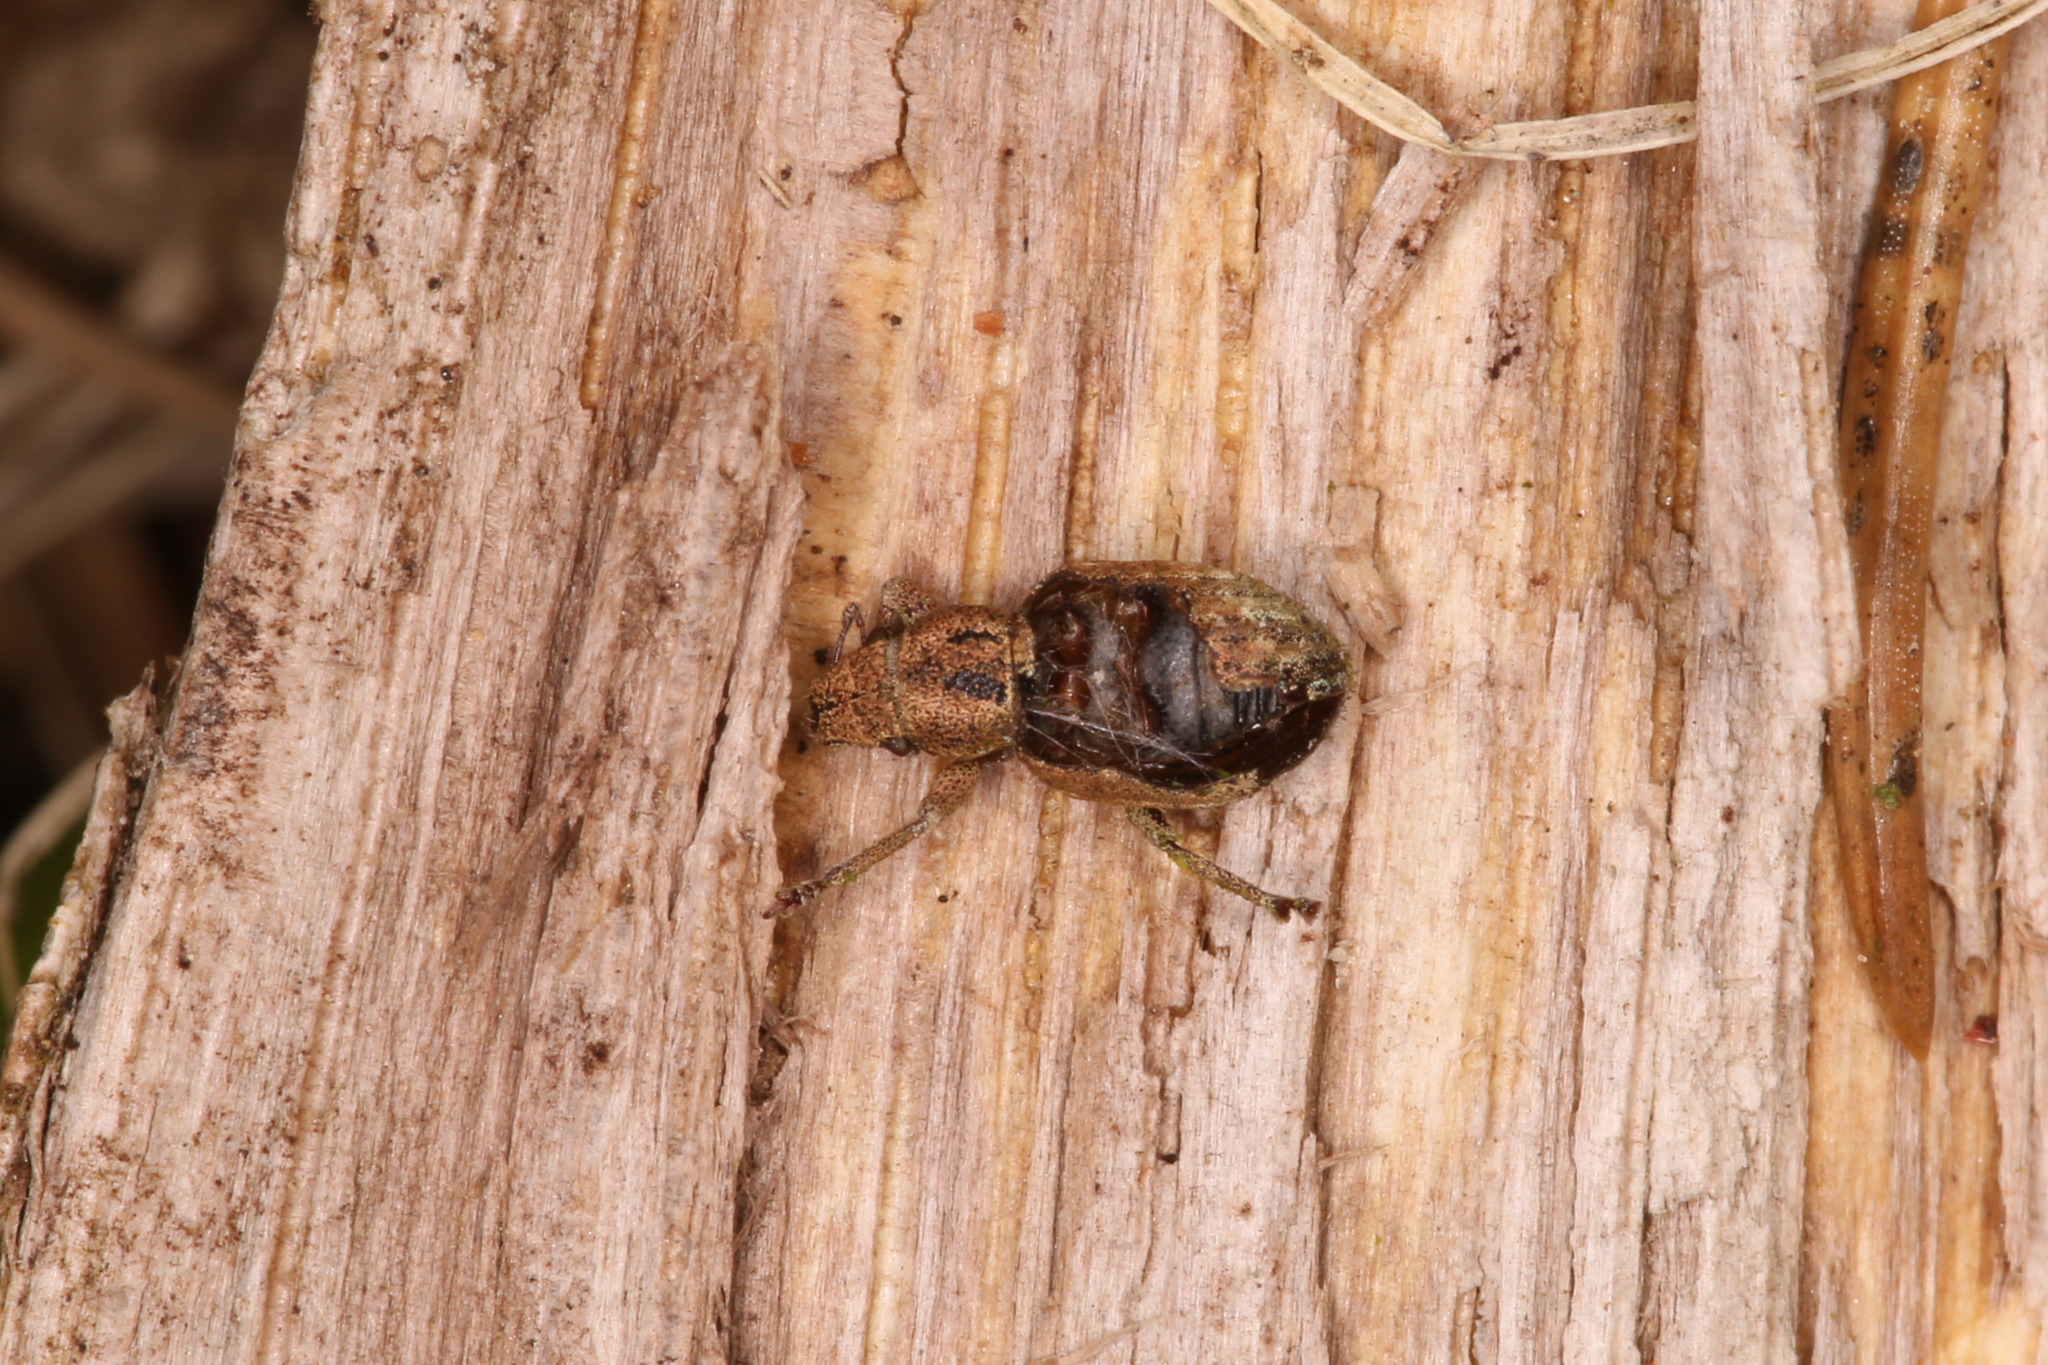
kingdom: Animalia
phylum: Arthropoda
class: Insecta
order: Coleoptera
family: Curculionidae
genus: Strophosoma
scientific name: Strophosoma melanogrammum
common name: Weevil
